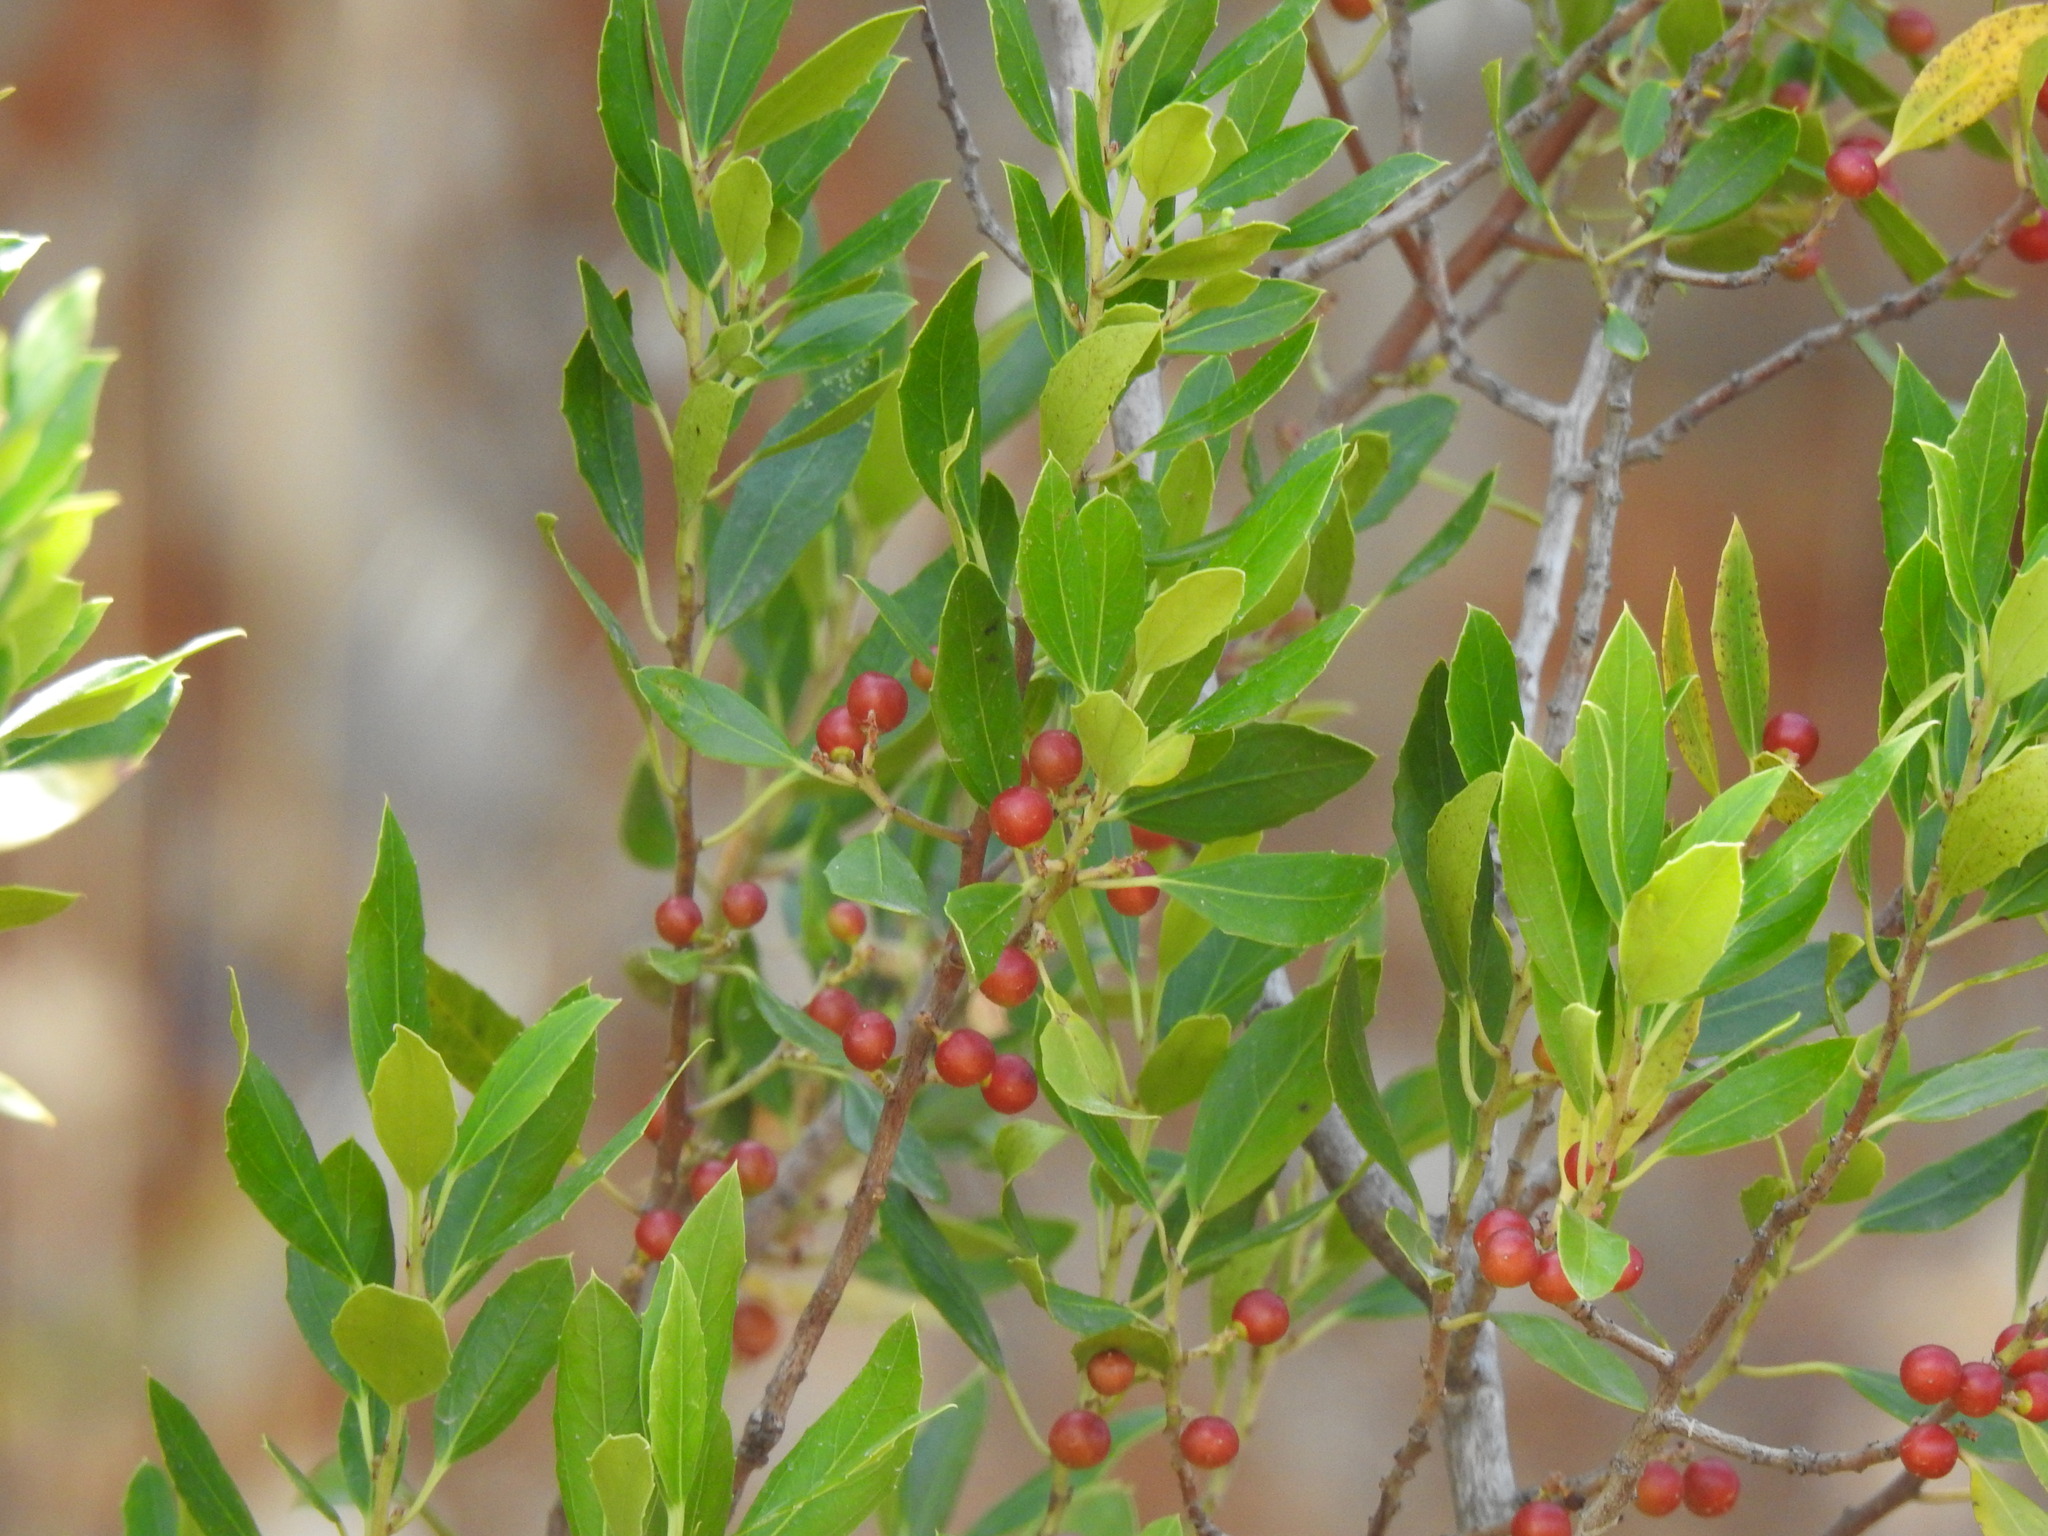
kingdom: Plantae
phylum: Tracheophyta
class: Magnoliopsida
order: Rosales
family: Rhamnaceae
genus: Rhamnus
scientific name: Rhamnus alaternus
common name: Mediterranean buckthorn
